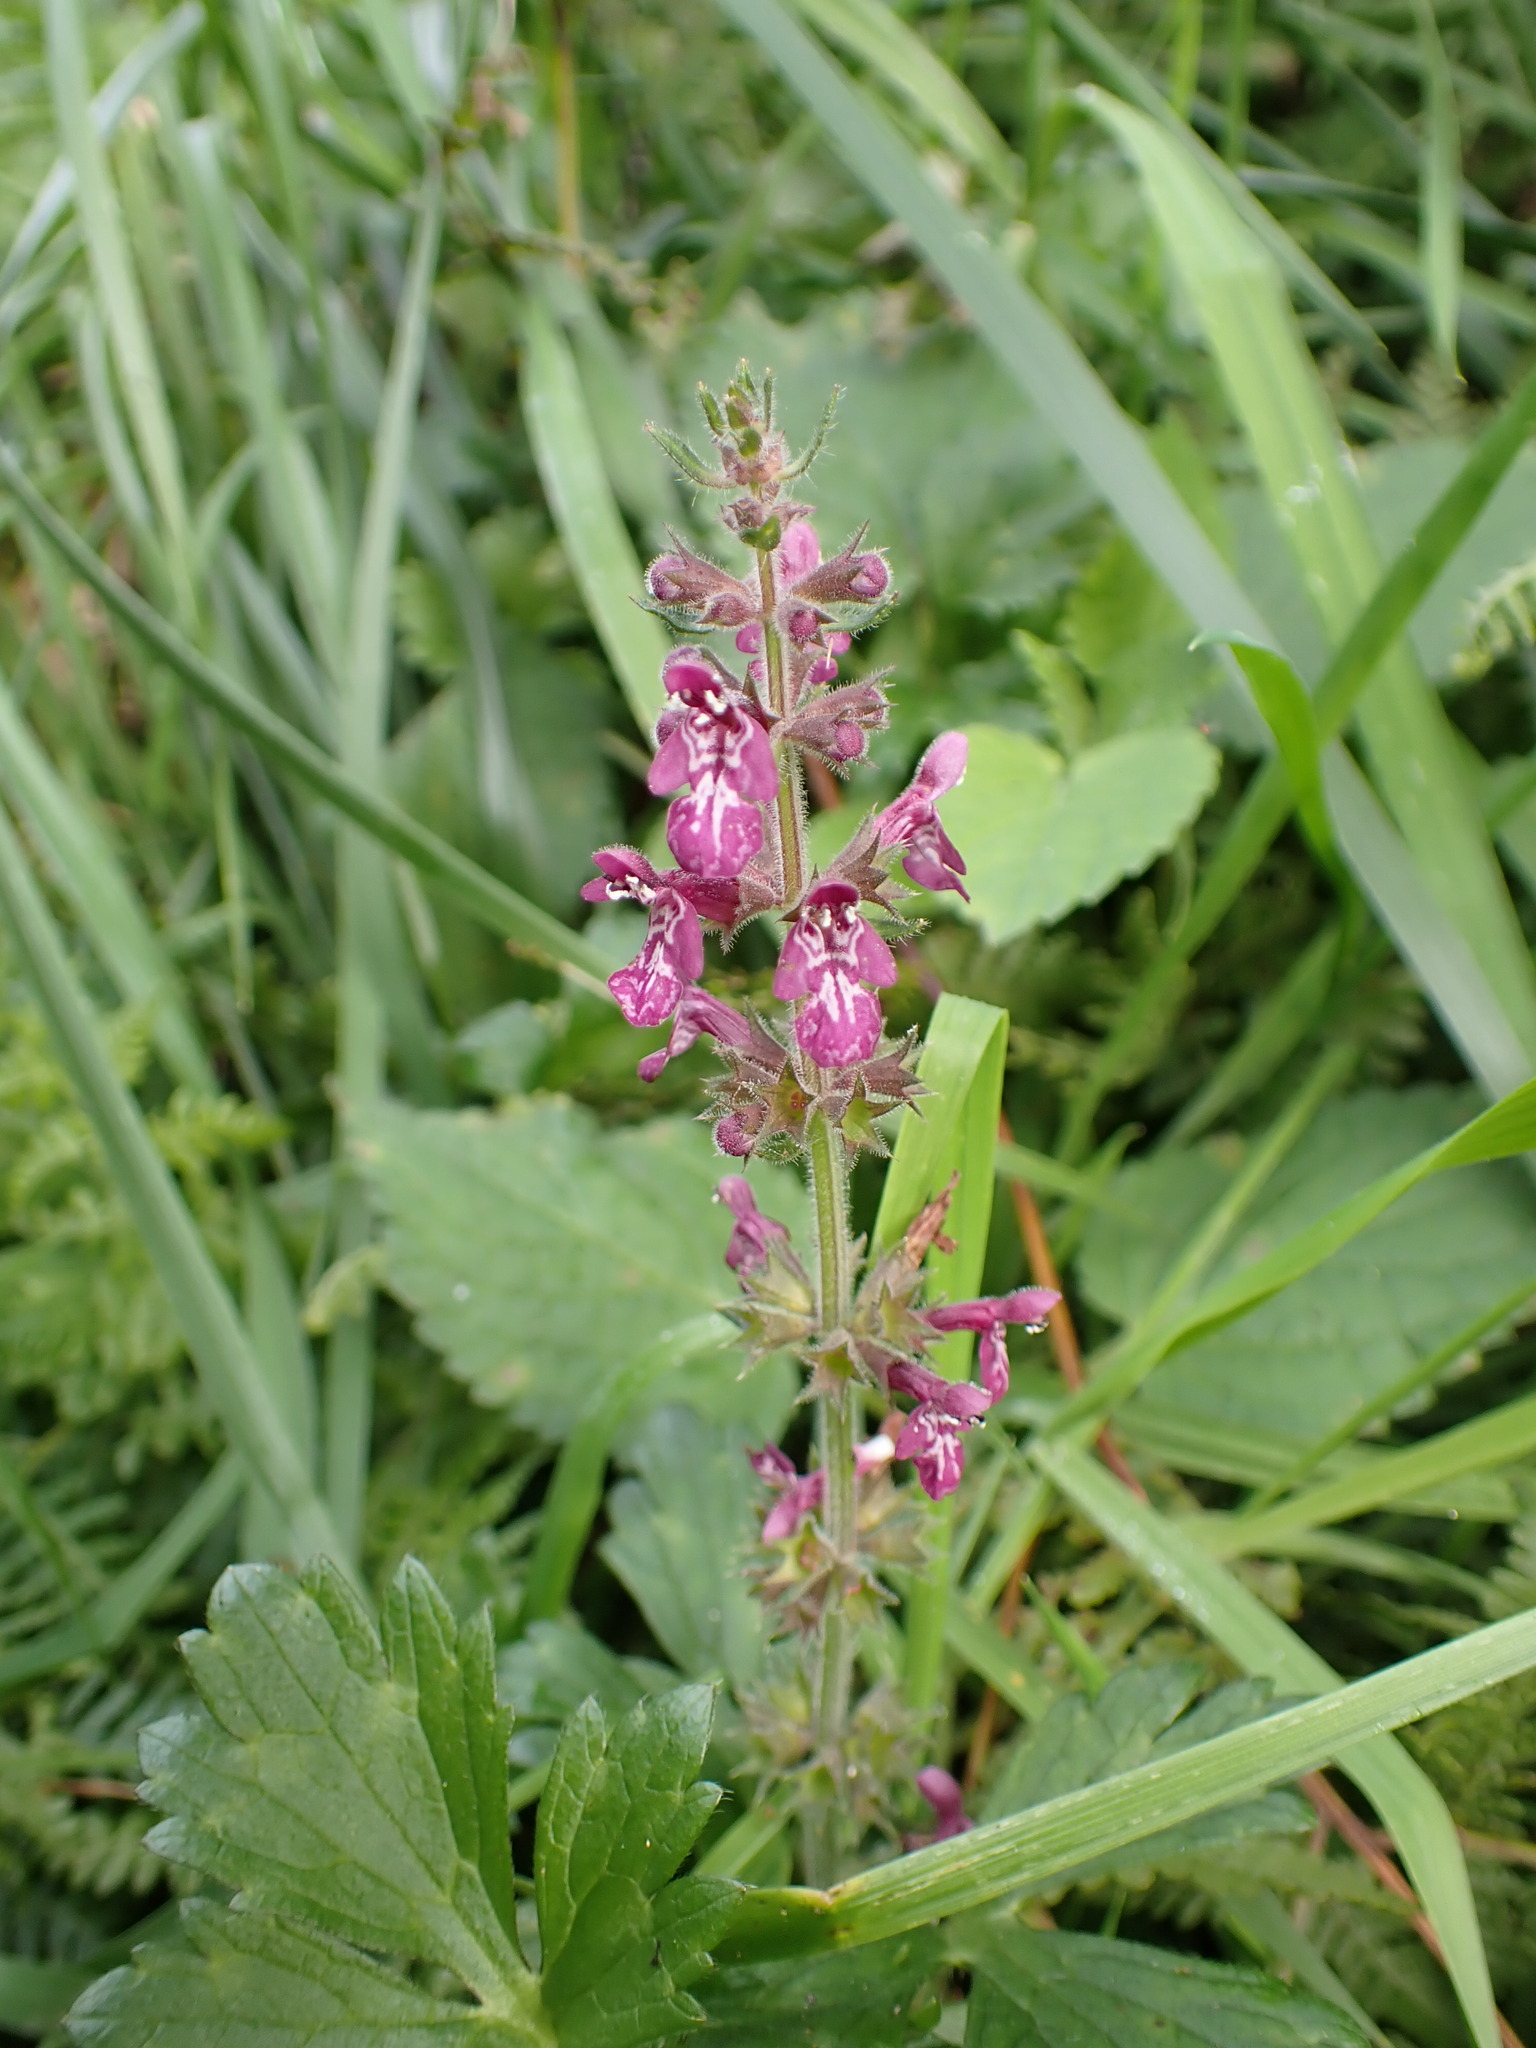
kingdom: Plantae
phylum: Tracheophyta
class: Magnoliopsida
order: Lamiales
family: Lamiaceae
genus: Stachys
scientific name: Stachys sylvatica
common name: Hedge woundwort
